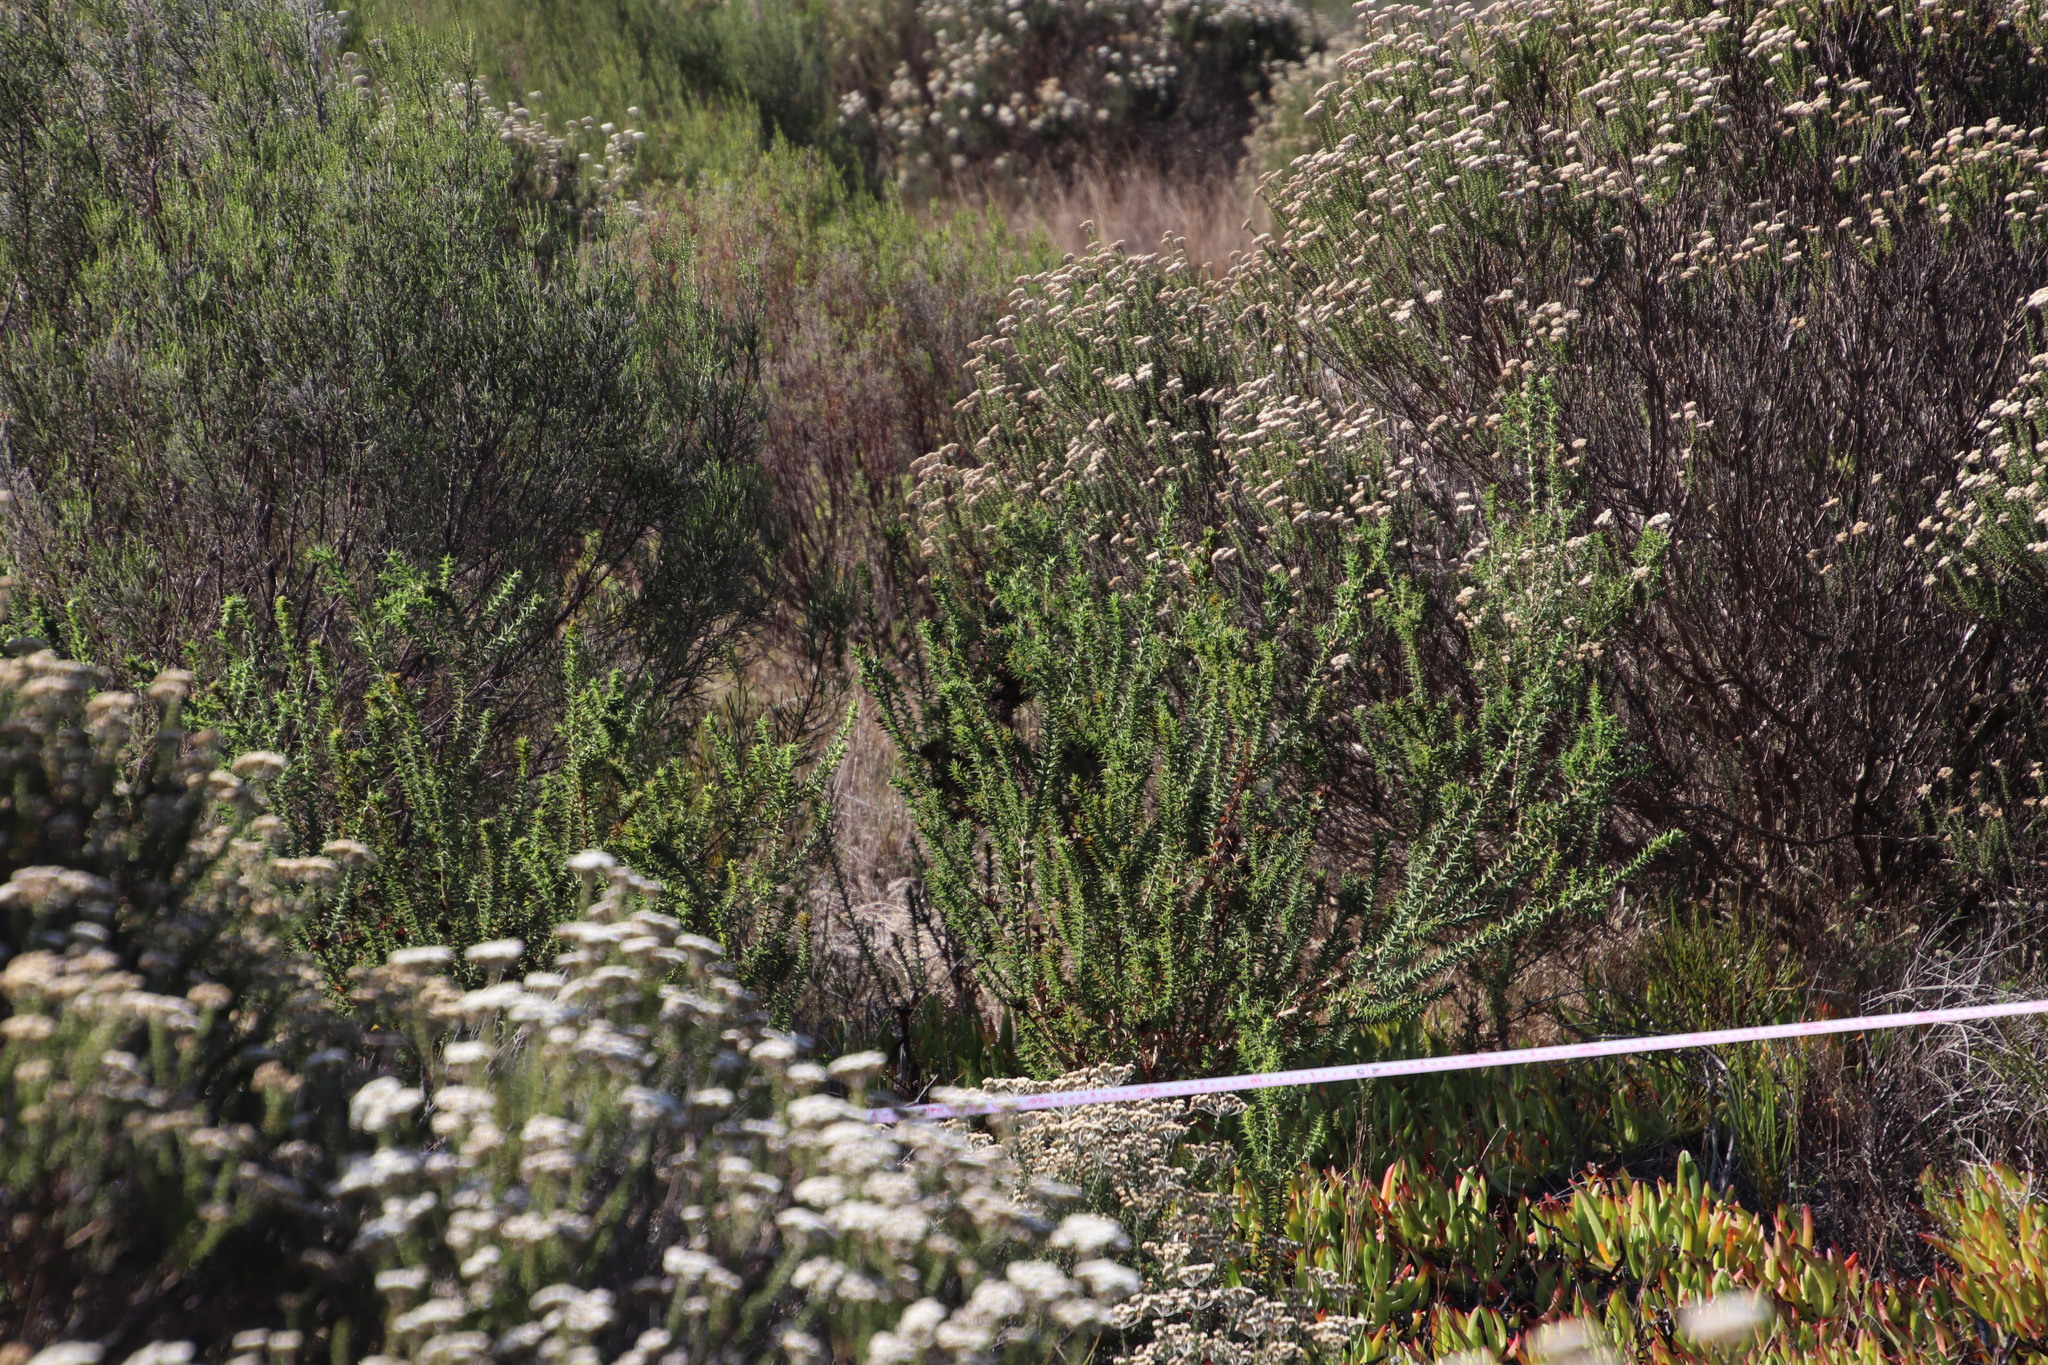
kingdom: Plantae
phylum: Tracheophyta
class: Magnoliopsida
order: Fabales
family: Fabaceae
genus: Aspalathus
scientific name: Aspalathus cordata
